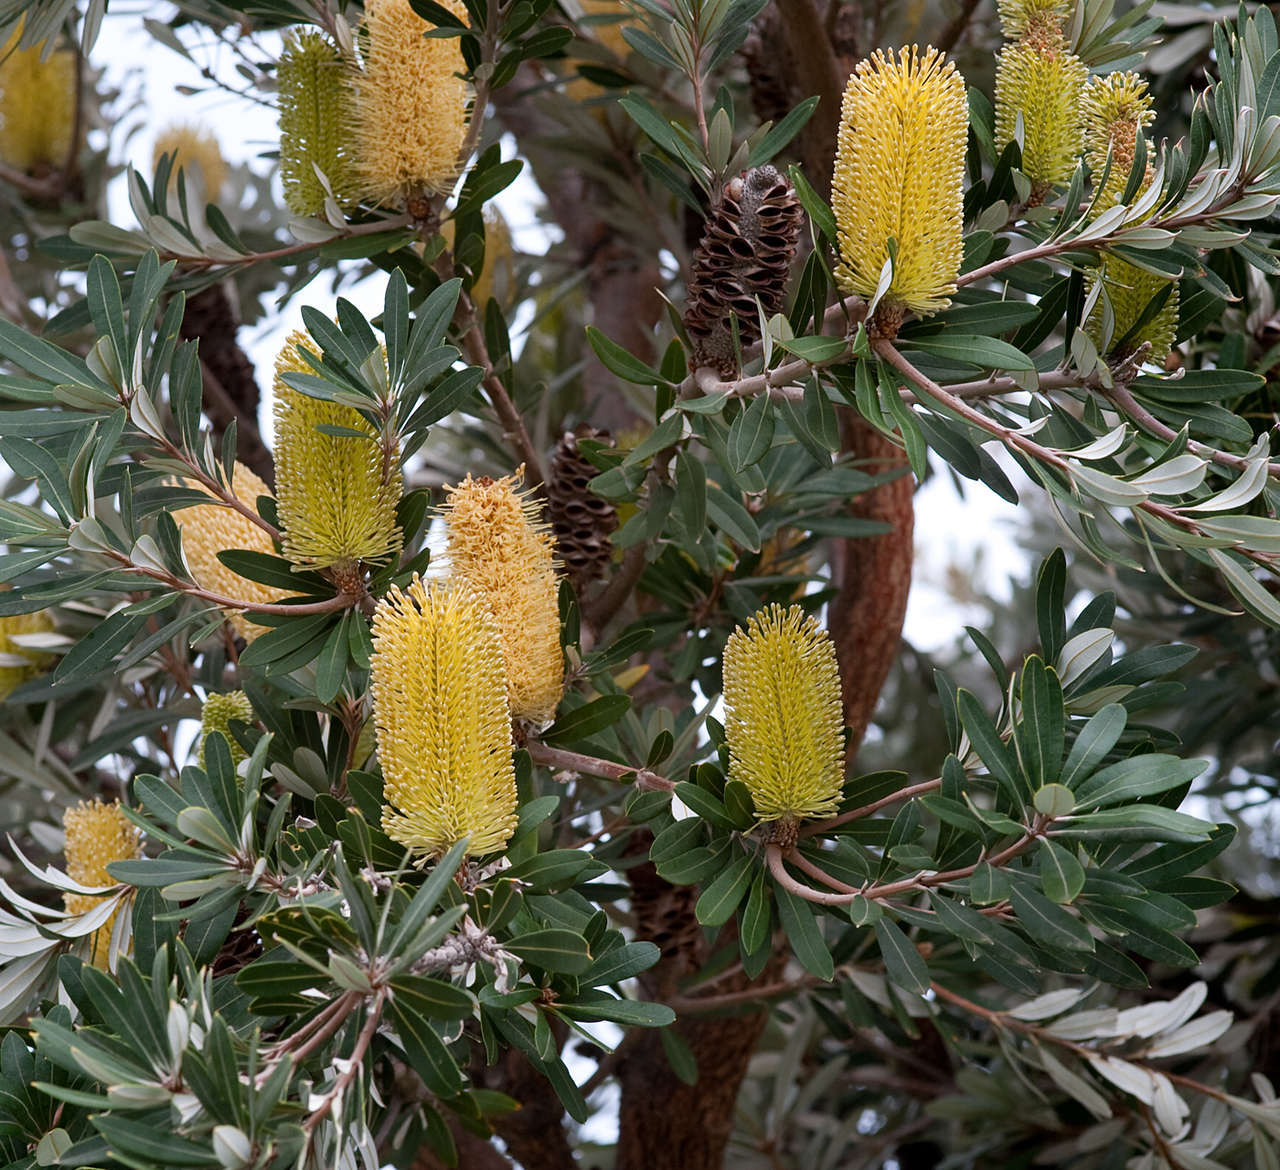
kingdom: Plantae
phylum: Tracheophyta
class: Magnoliopsida
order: Proteales
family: Proteaceae
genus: Banksia
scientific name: Banksia integrifolia
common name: White-honeysuckle
